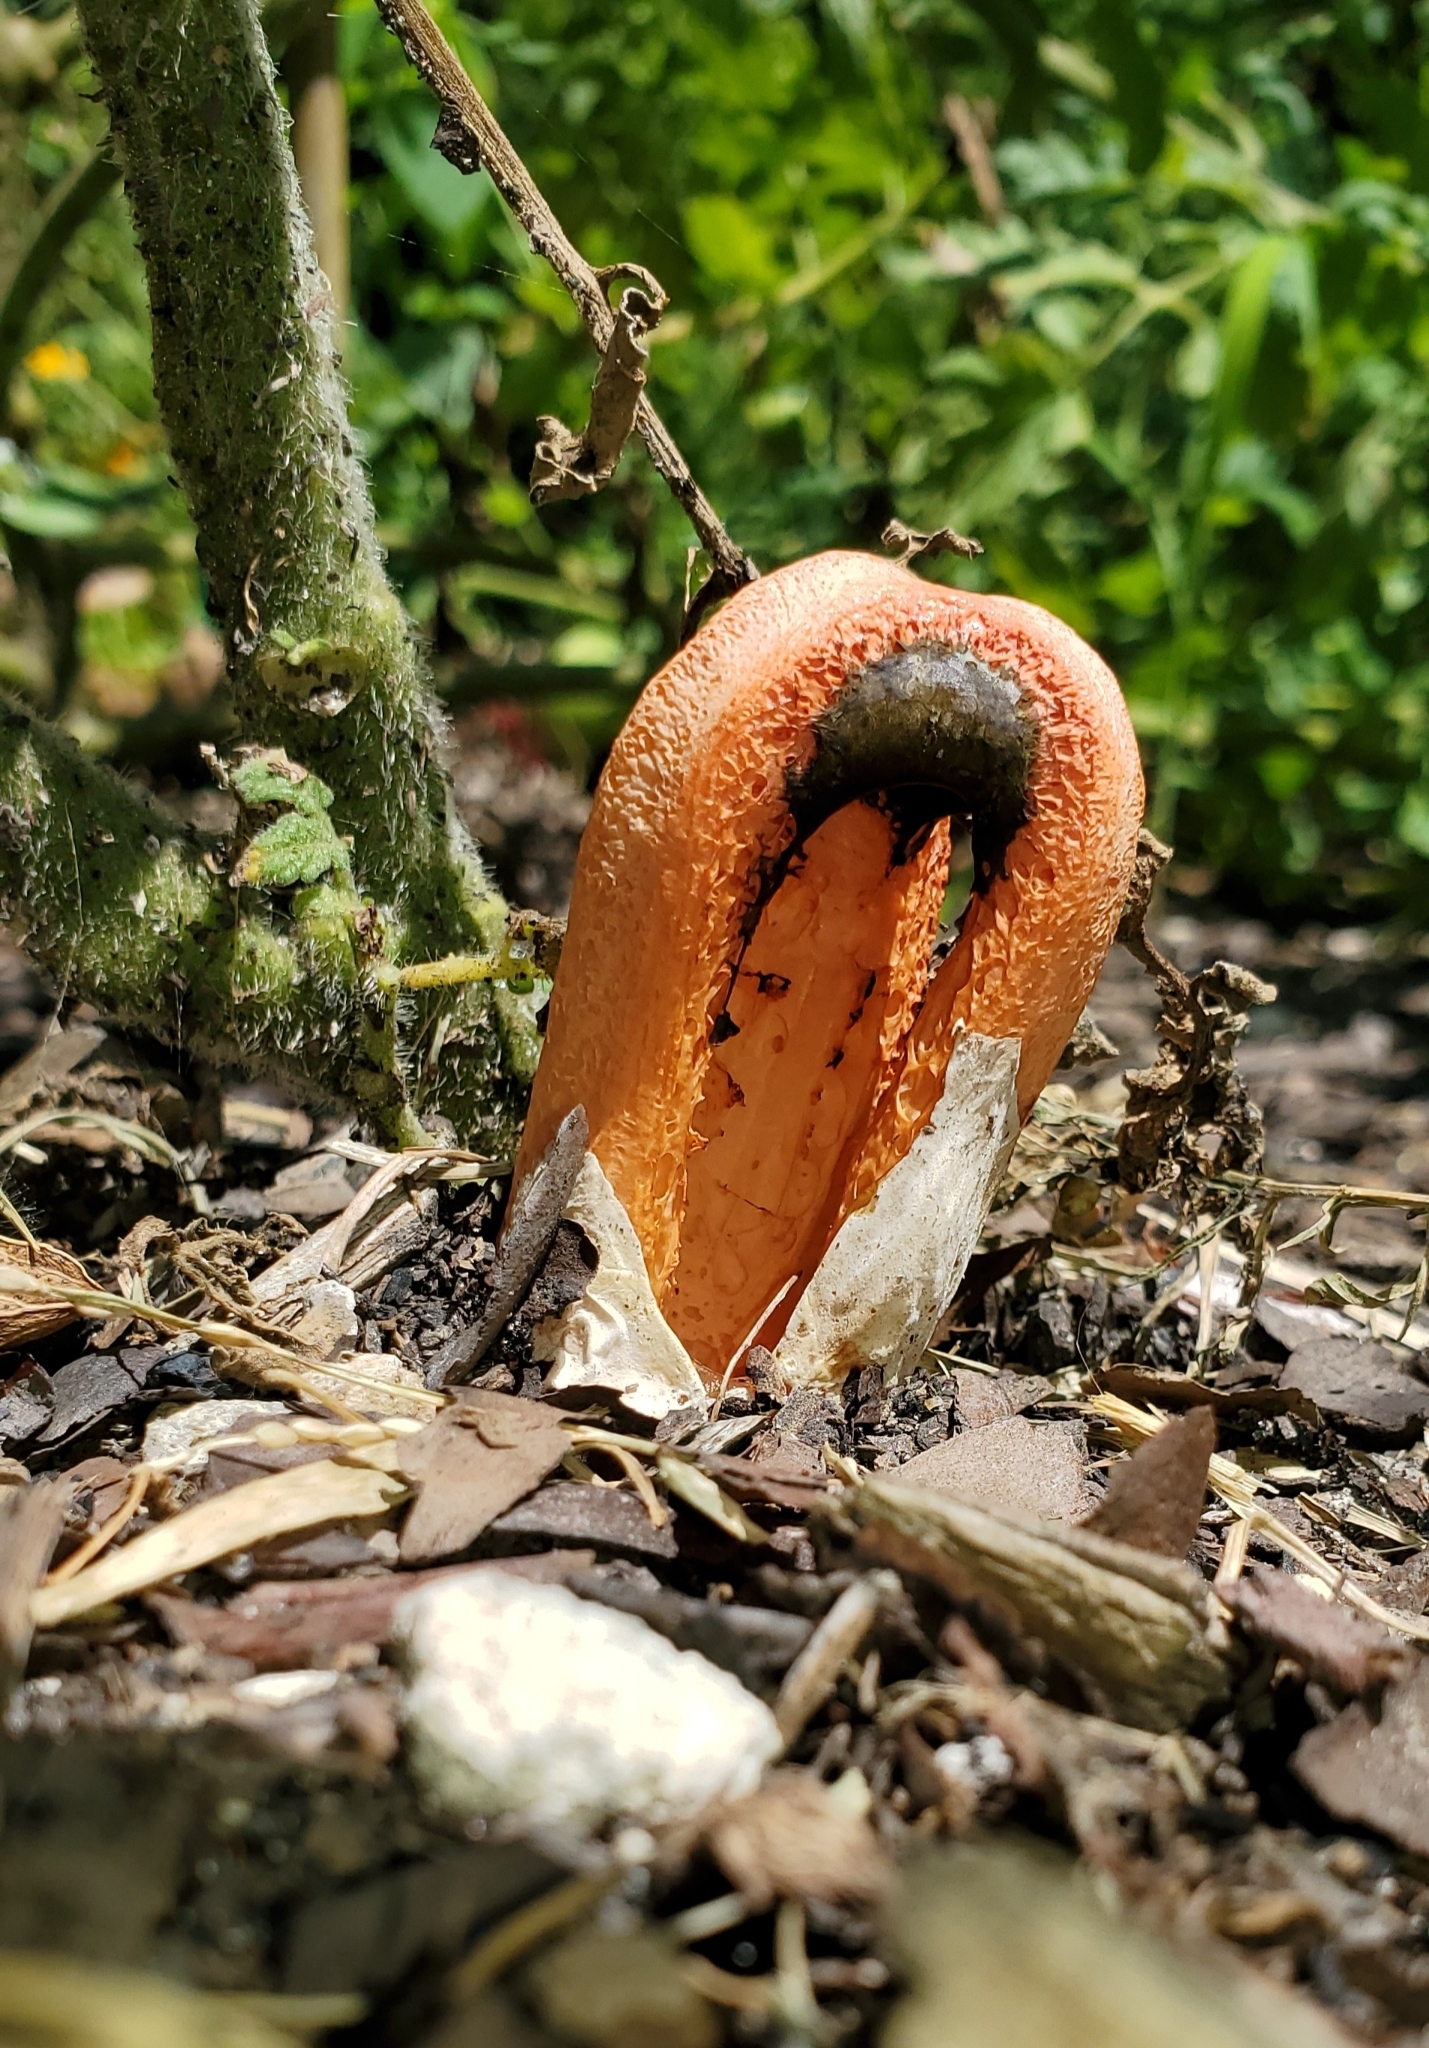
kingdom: Fungi
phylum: Basidiomycota
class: Agaricomycetes
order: Phallales
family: Phallaceae
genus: Clathrus
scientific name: Clathrus columnatus
